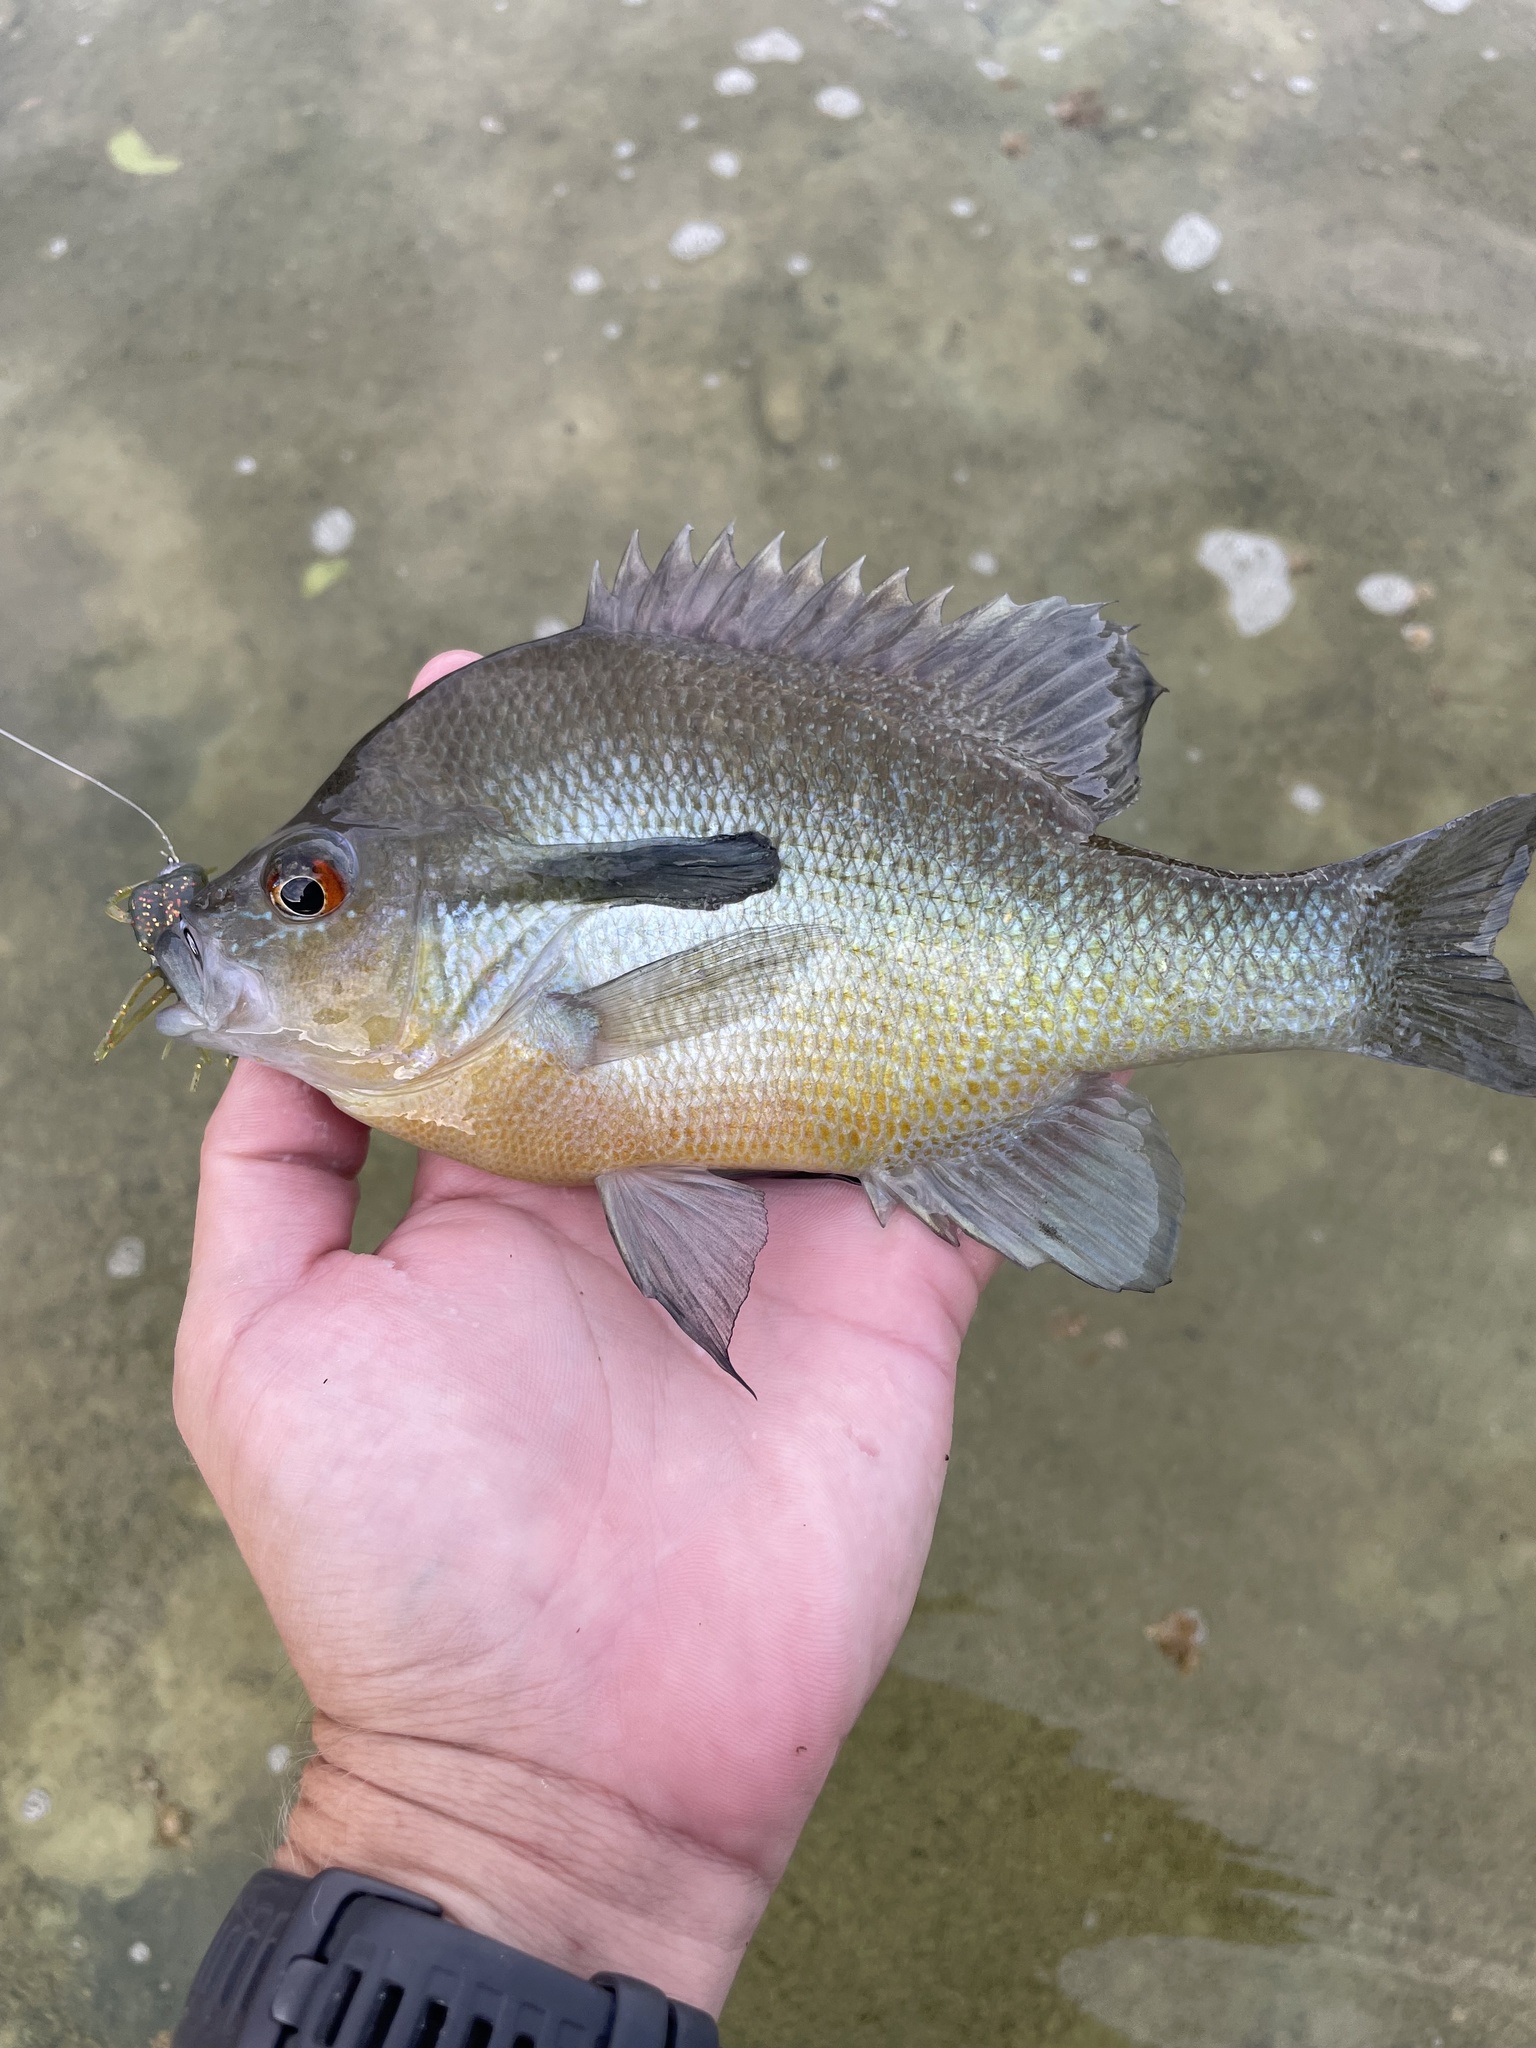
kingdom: Animalia
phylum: Chordata
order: Perciformes
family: Centrarchidae
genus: Lepomis
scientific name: Lepomis auritus
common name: Redbreast sunfish
